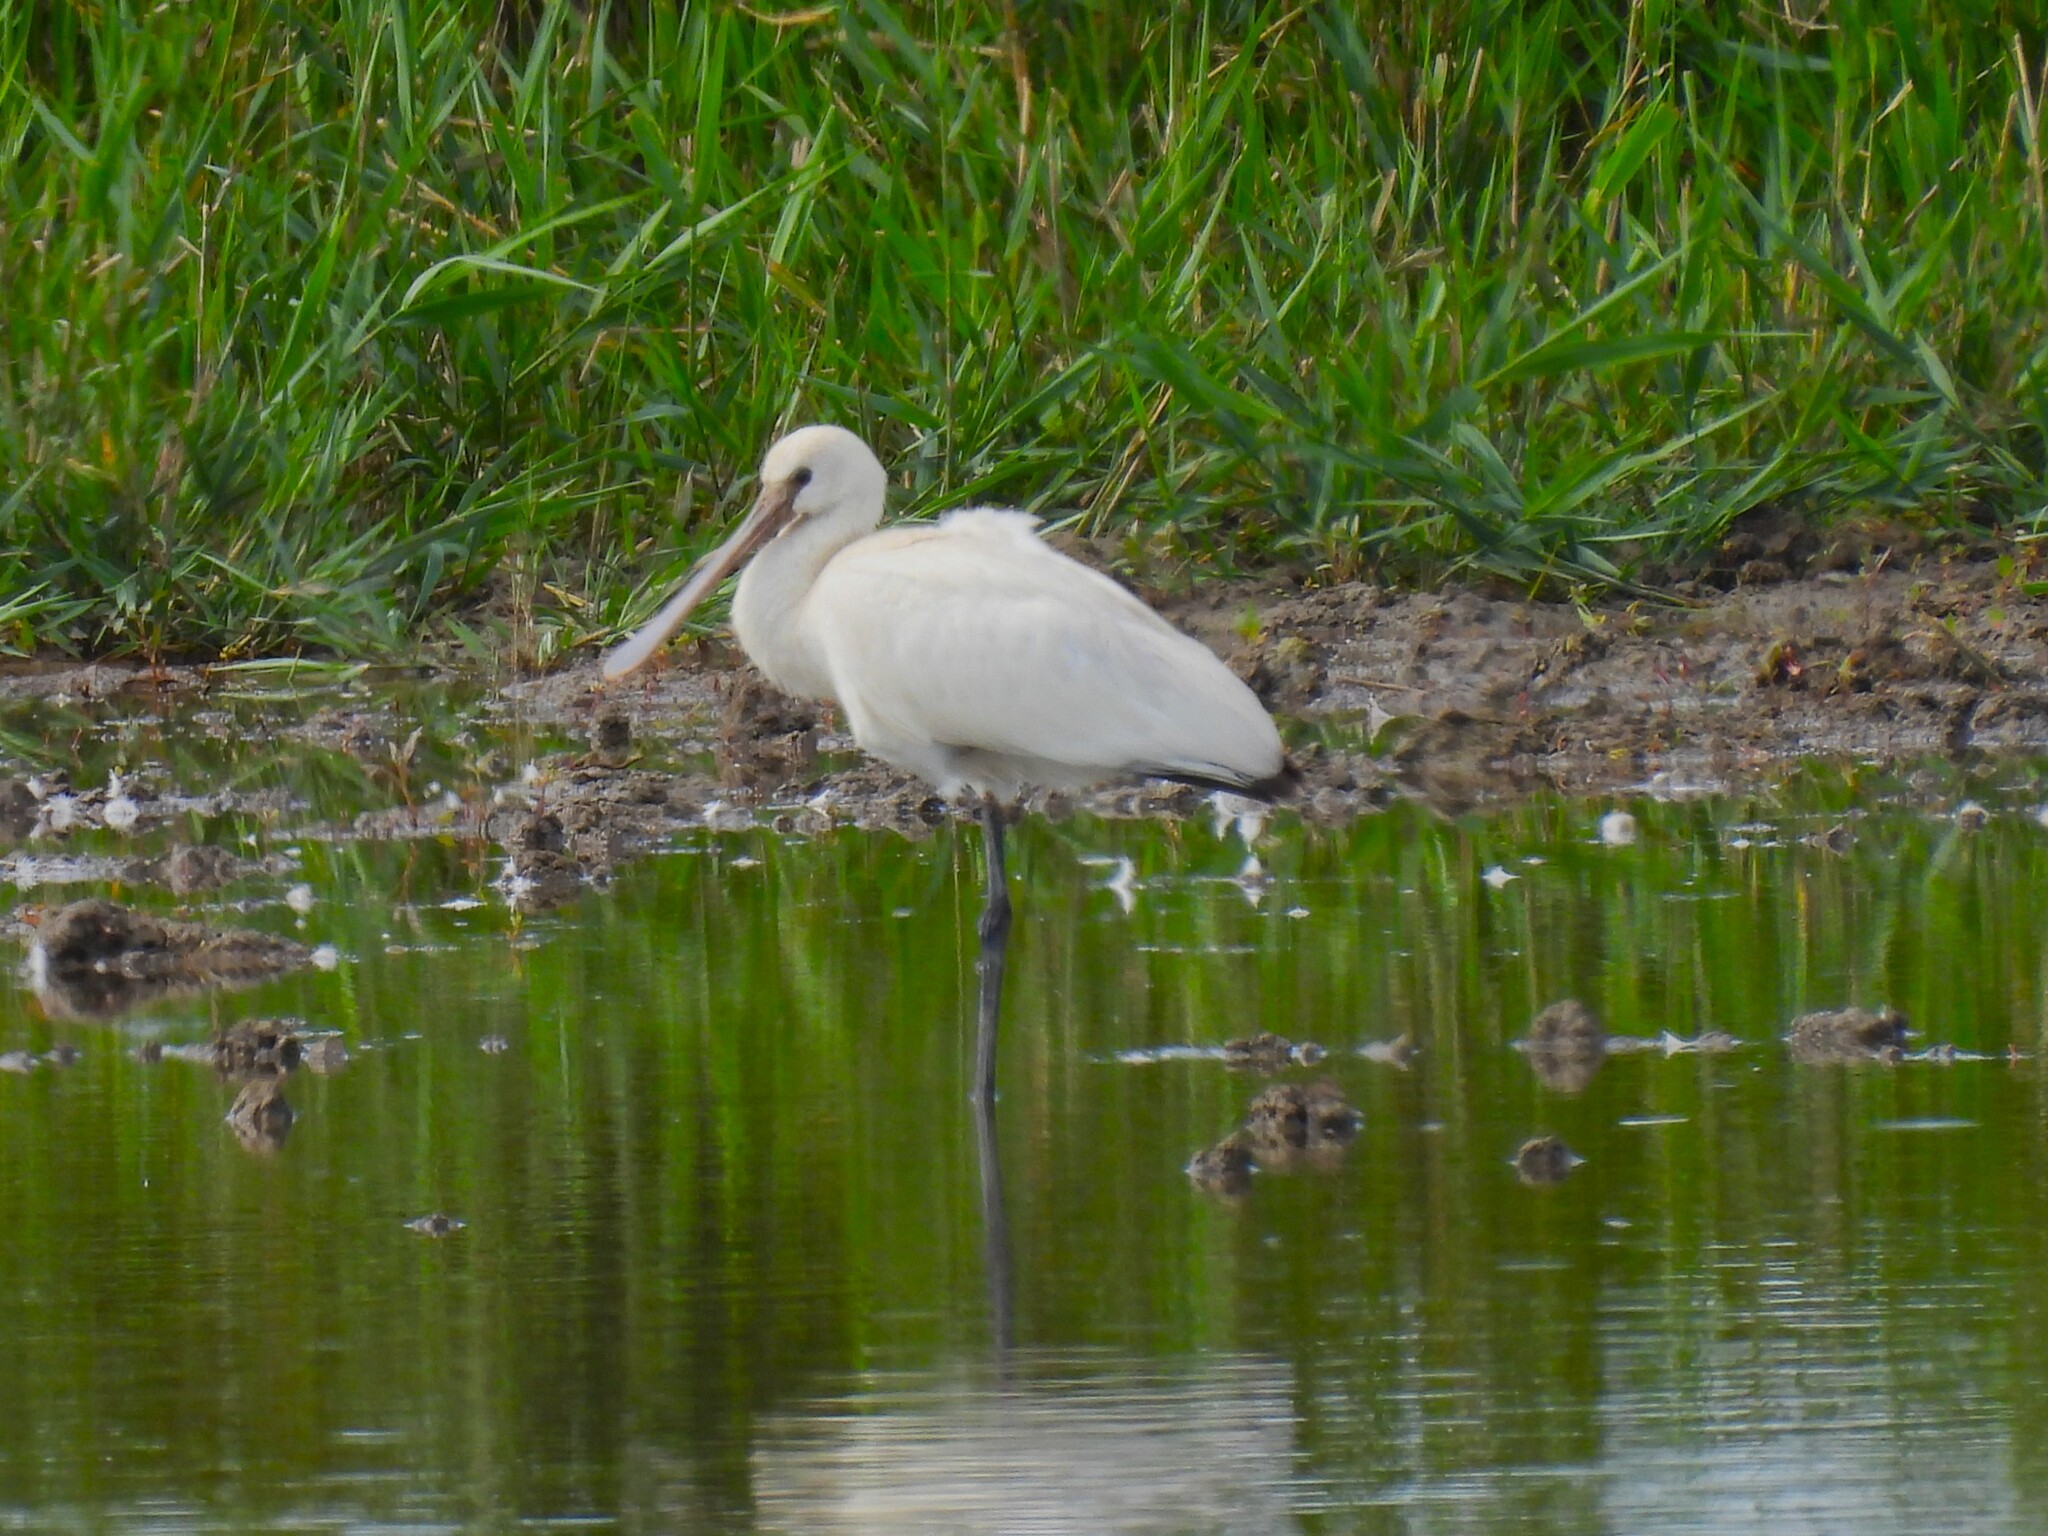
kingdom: Animalia
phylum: Chordata
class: Aves
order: Pelecaniformes
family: Threskiornithidae
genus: Platalea
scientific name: Platalea leucorodia
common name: Eurasian spoonbill
